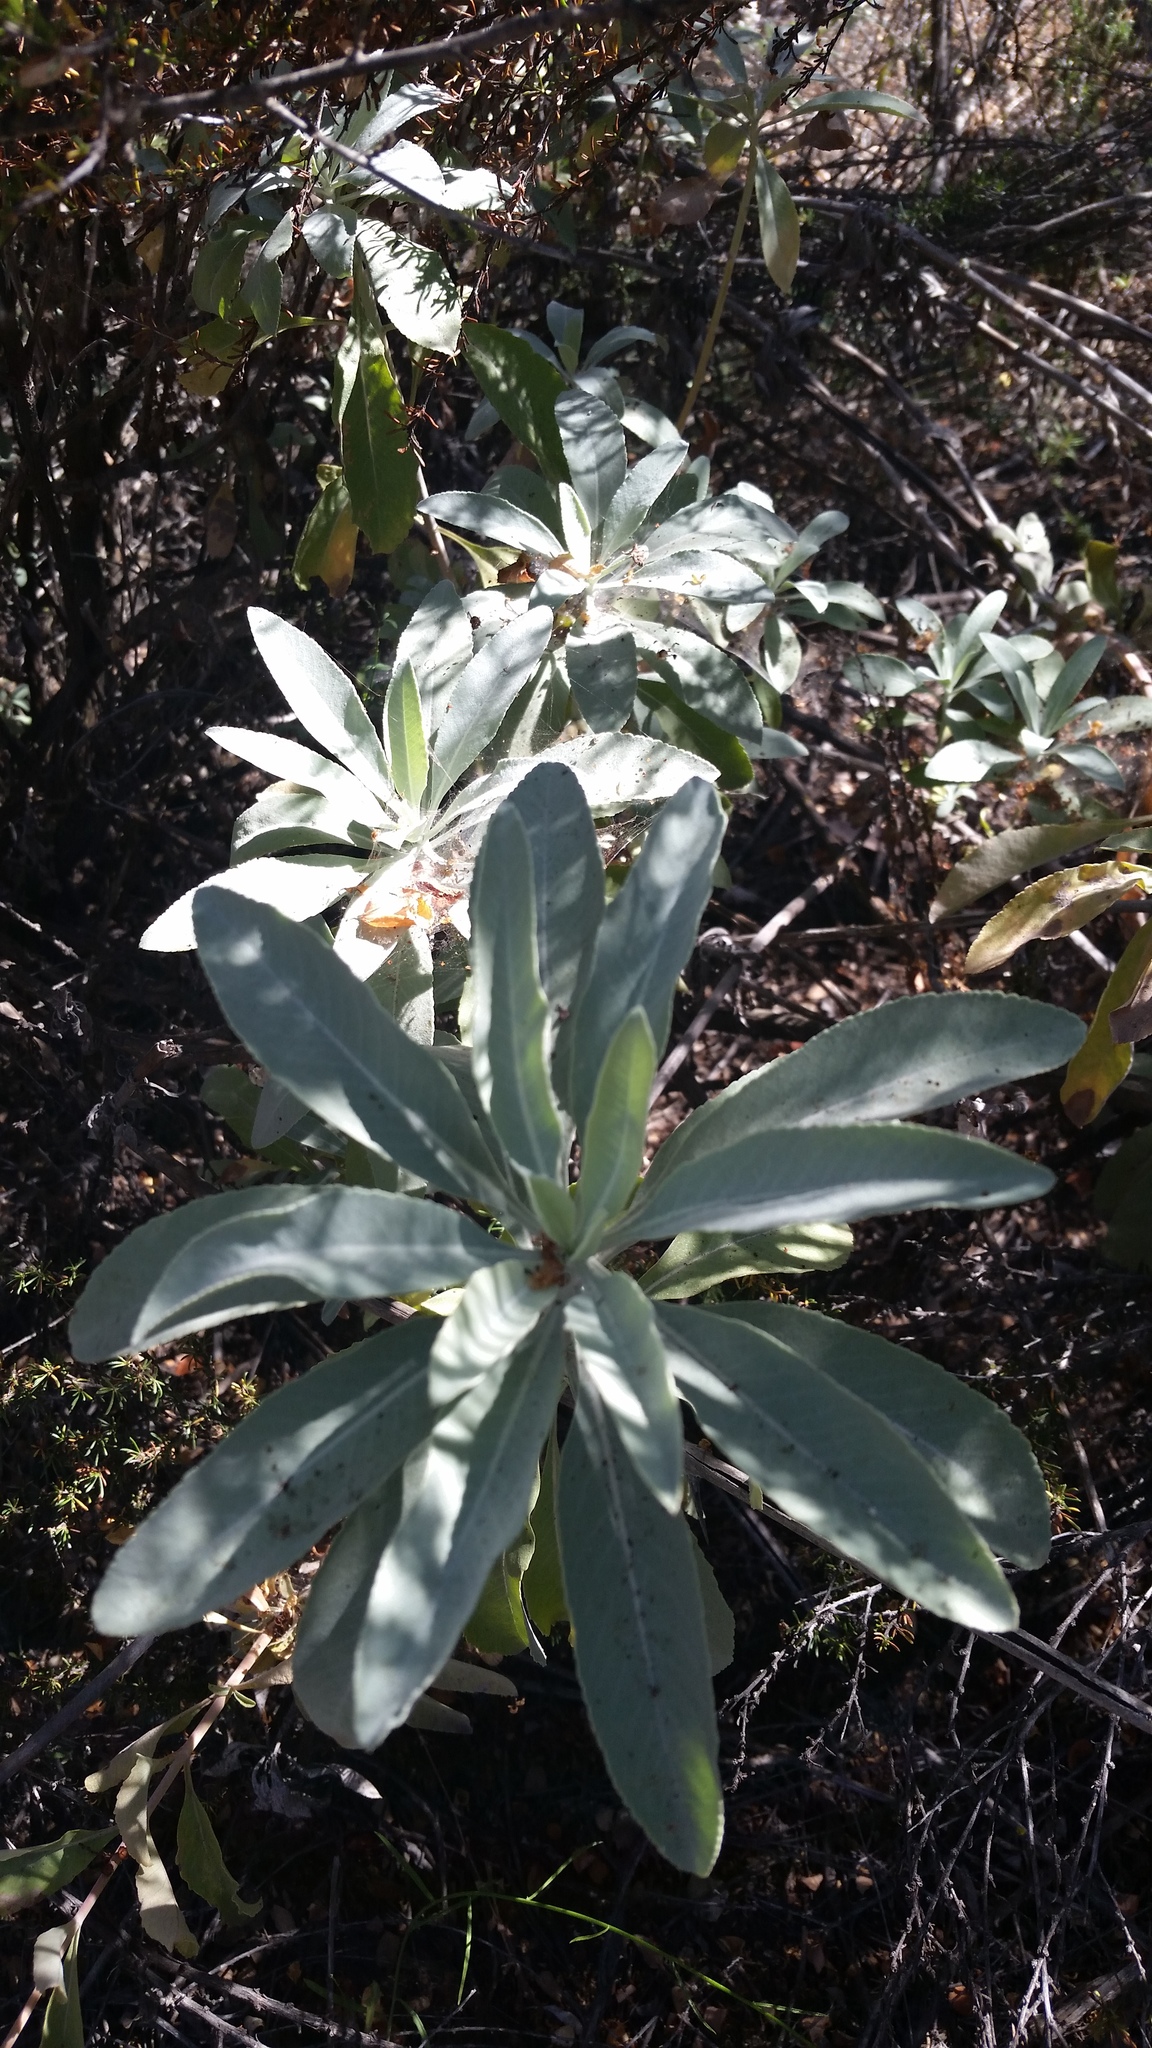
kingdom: Plantae
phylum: Tracheophyta
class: Magnoliopsida
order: Lamiales
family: Lamiaceae
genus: Salvia
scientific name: Salvia apiana
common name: White sage
